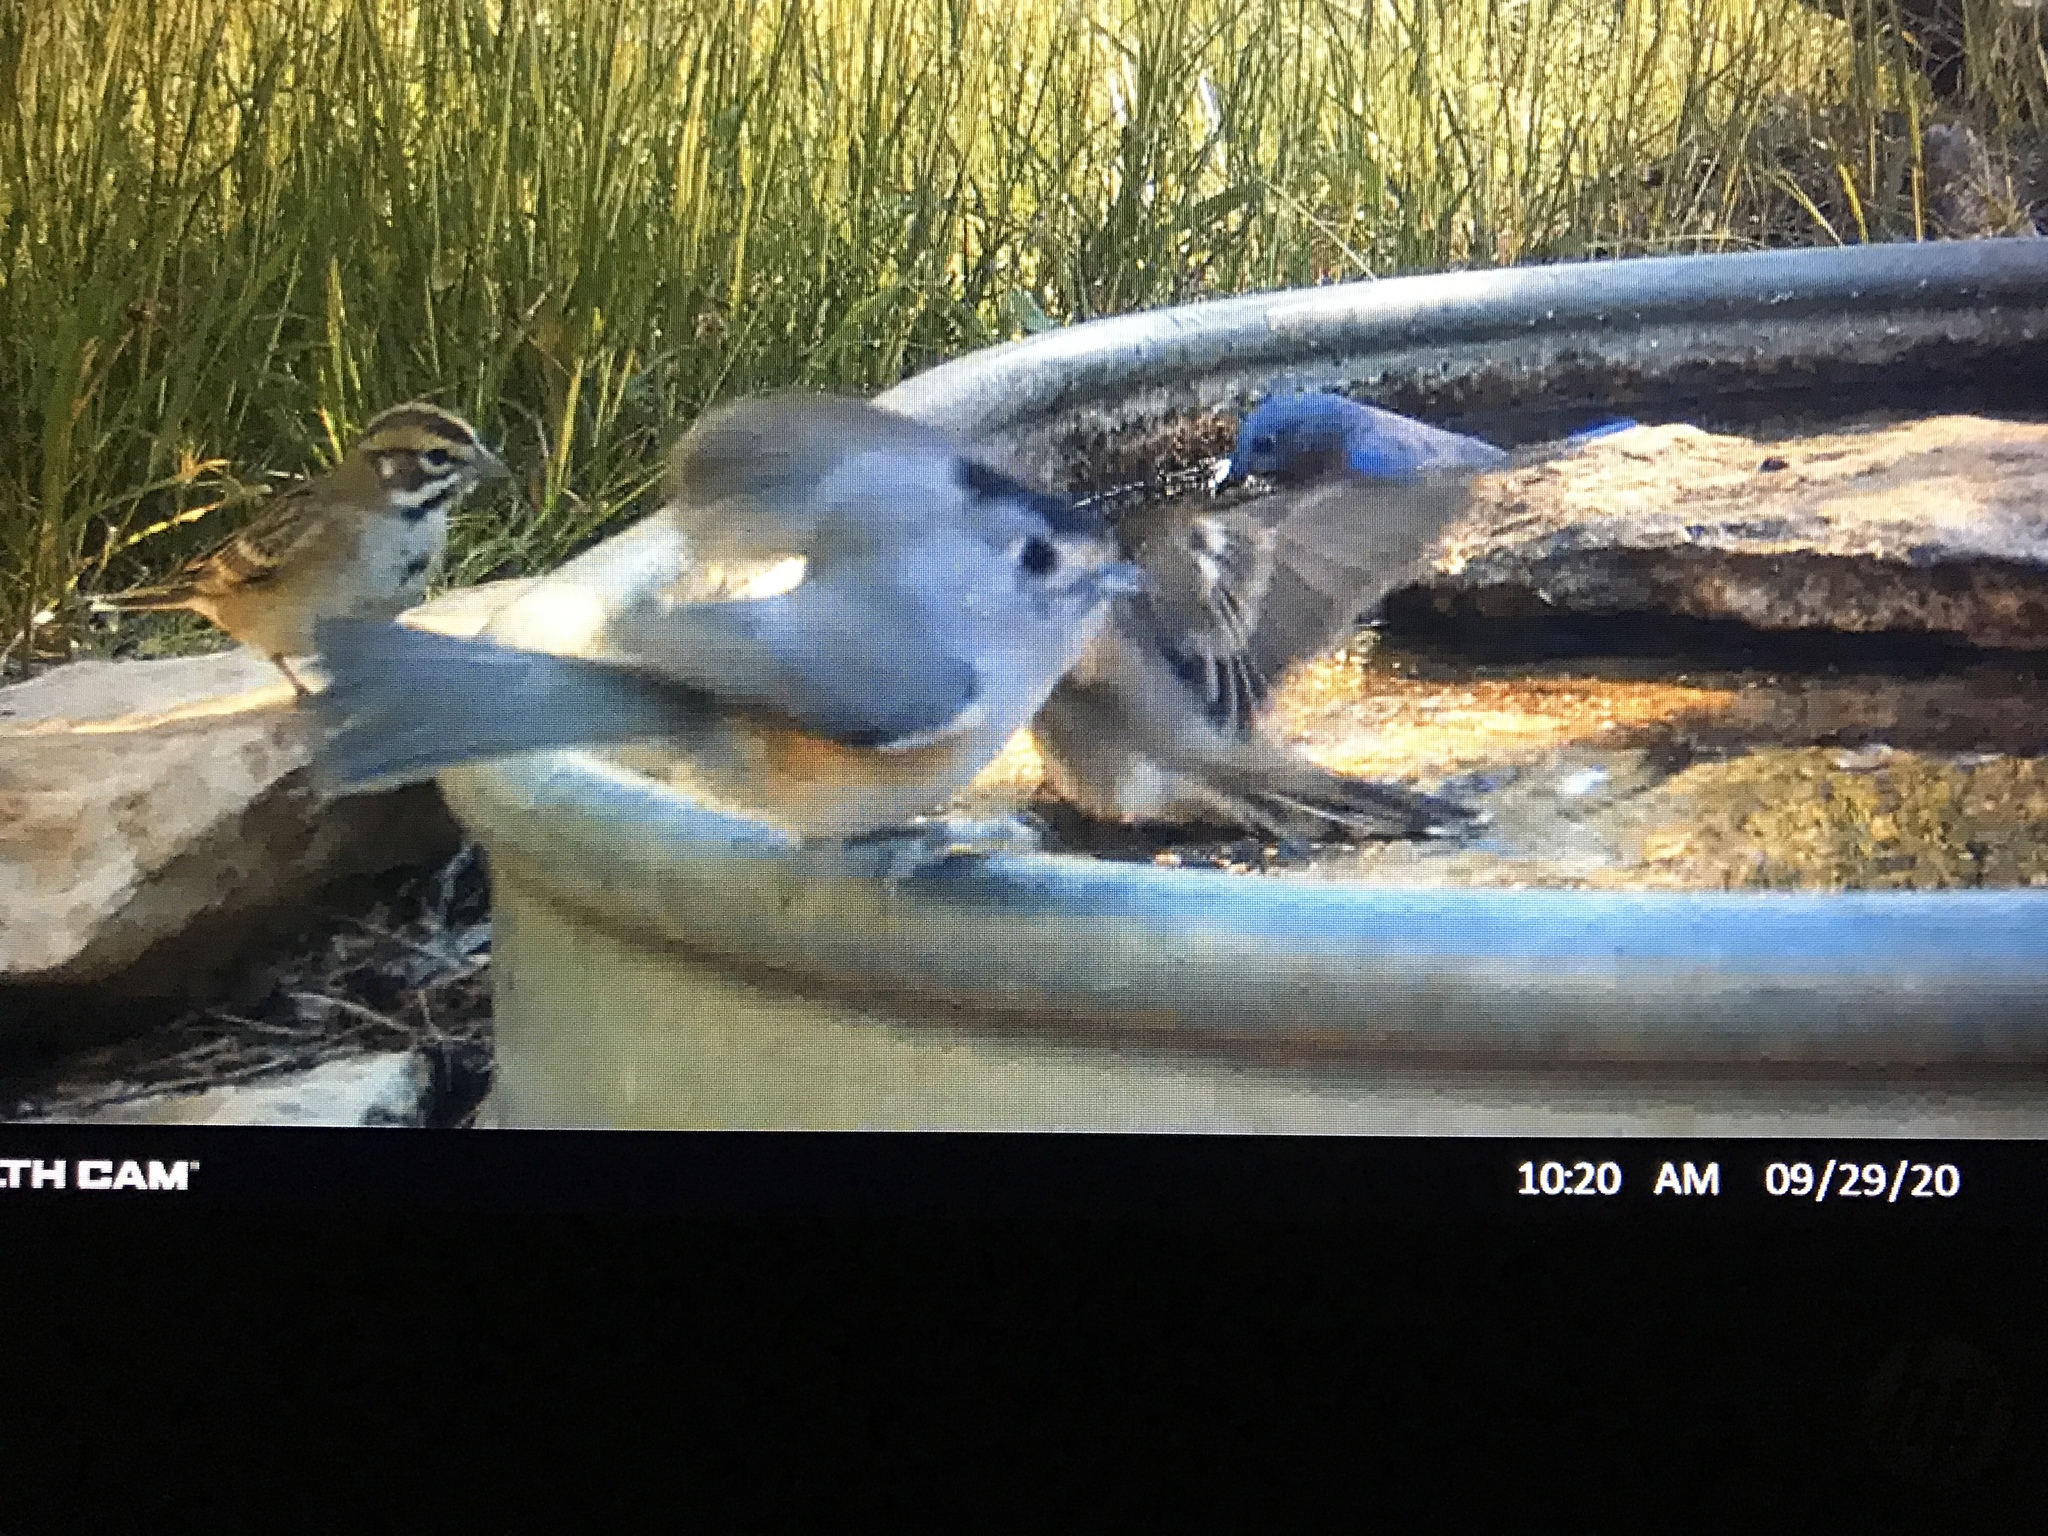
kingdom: Animalia
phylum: Chordata
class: Aves
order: Passeriformes
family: Paridae
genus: Baeolophus
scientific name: Baeolophus atricristatus
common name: Black-crested titmouse
